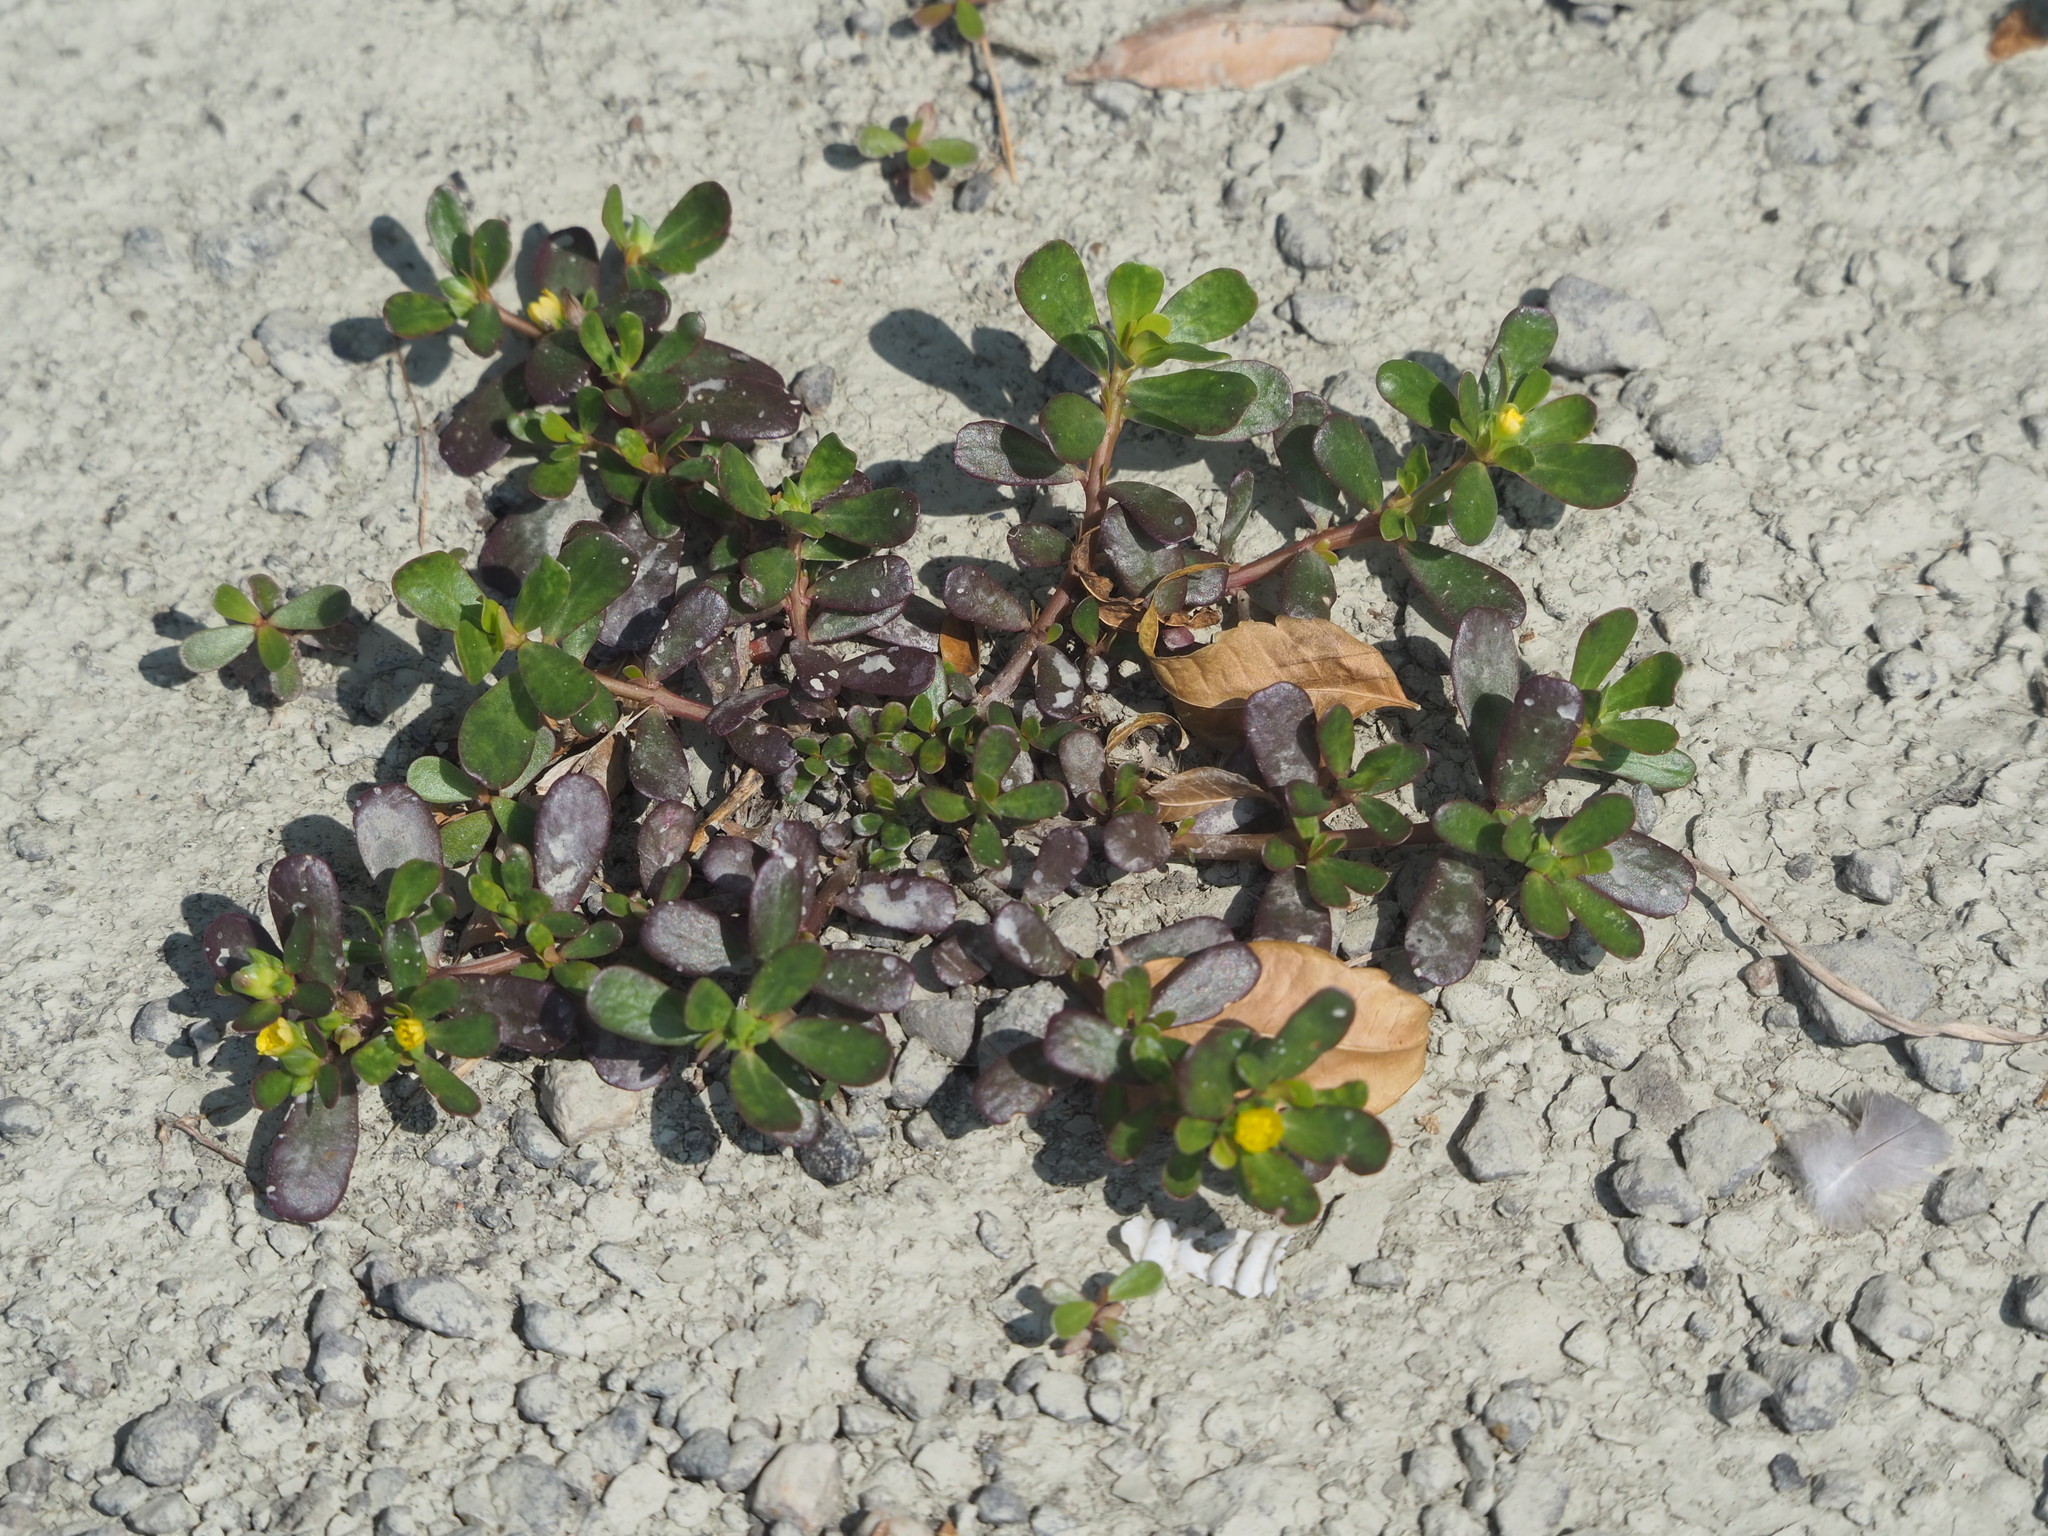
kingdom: Plantae
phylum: Tracheophyta
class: Magnoliopsida
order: Caryophyllales
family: Portulacaceae
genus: Portulaca
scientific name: Portulaca oleracea
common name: Common purslane
